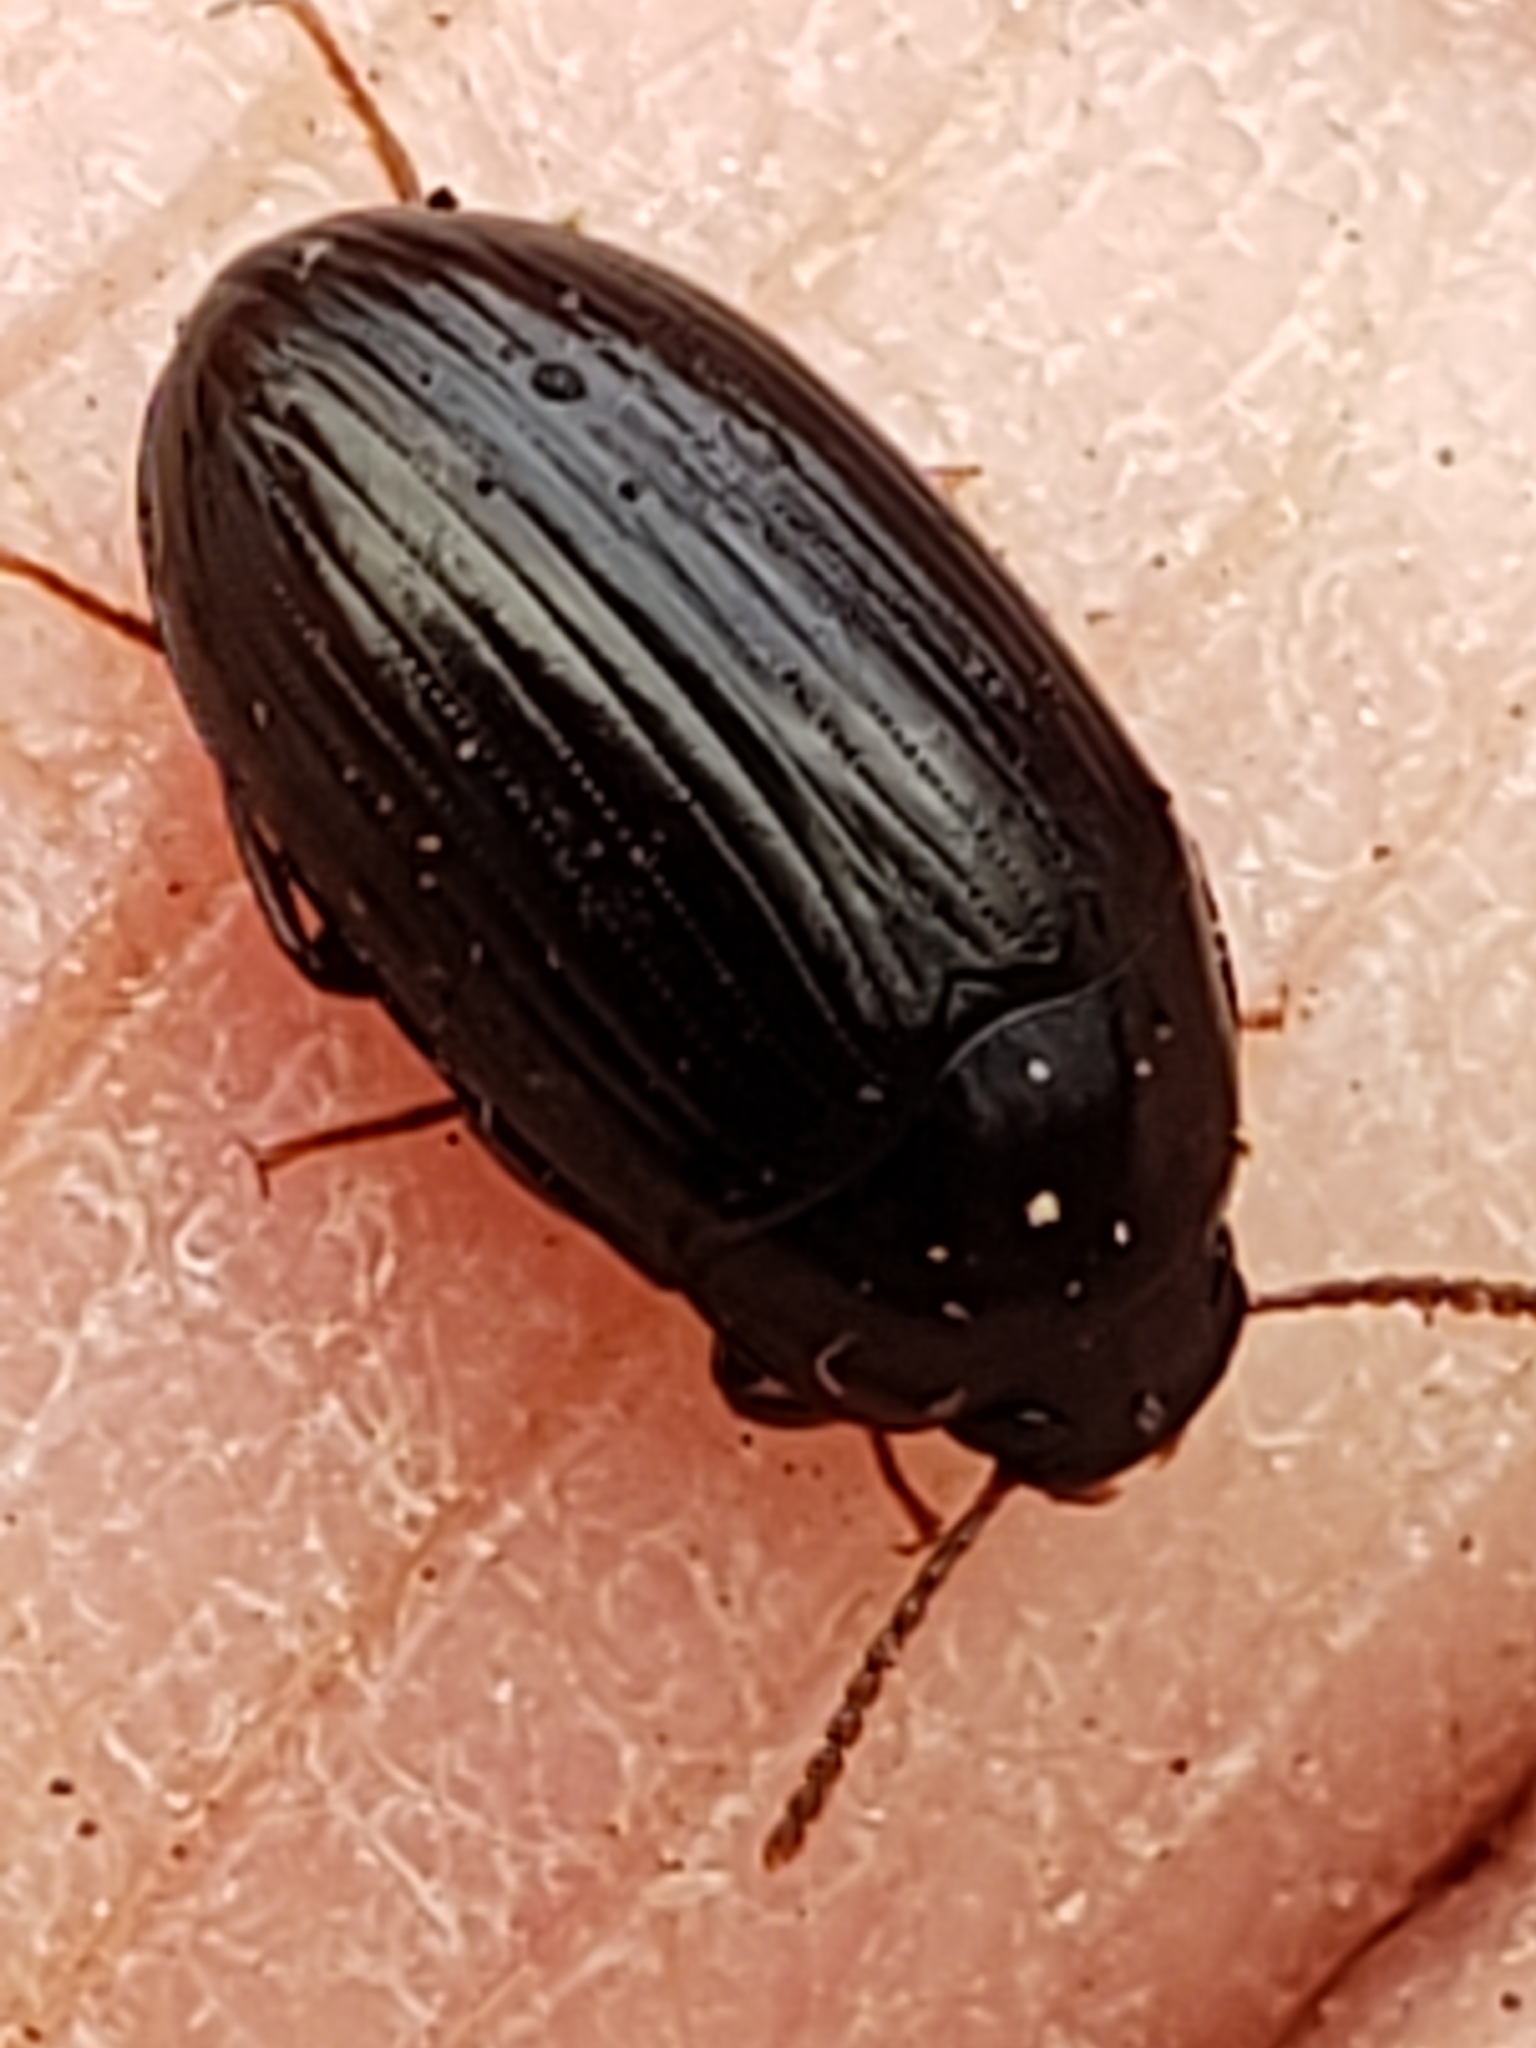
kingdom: Animalia
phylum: Arthropoda
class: Insecta
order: Coleoptera
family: Tenebrionidae
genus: Platydema
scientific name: Platydema americana
